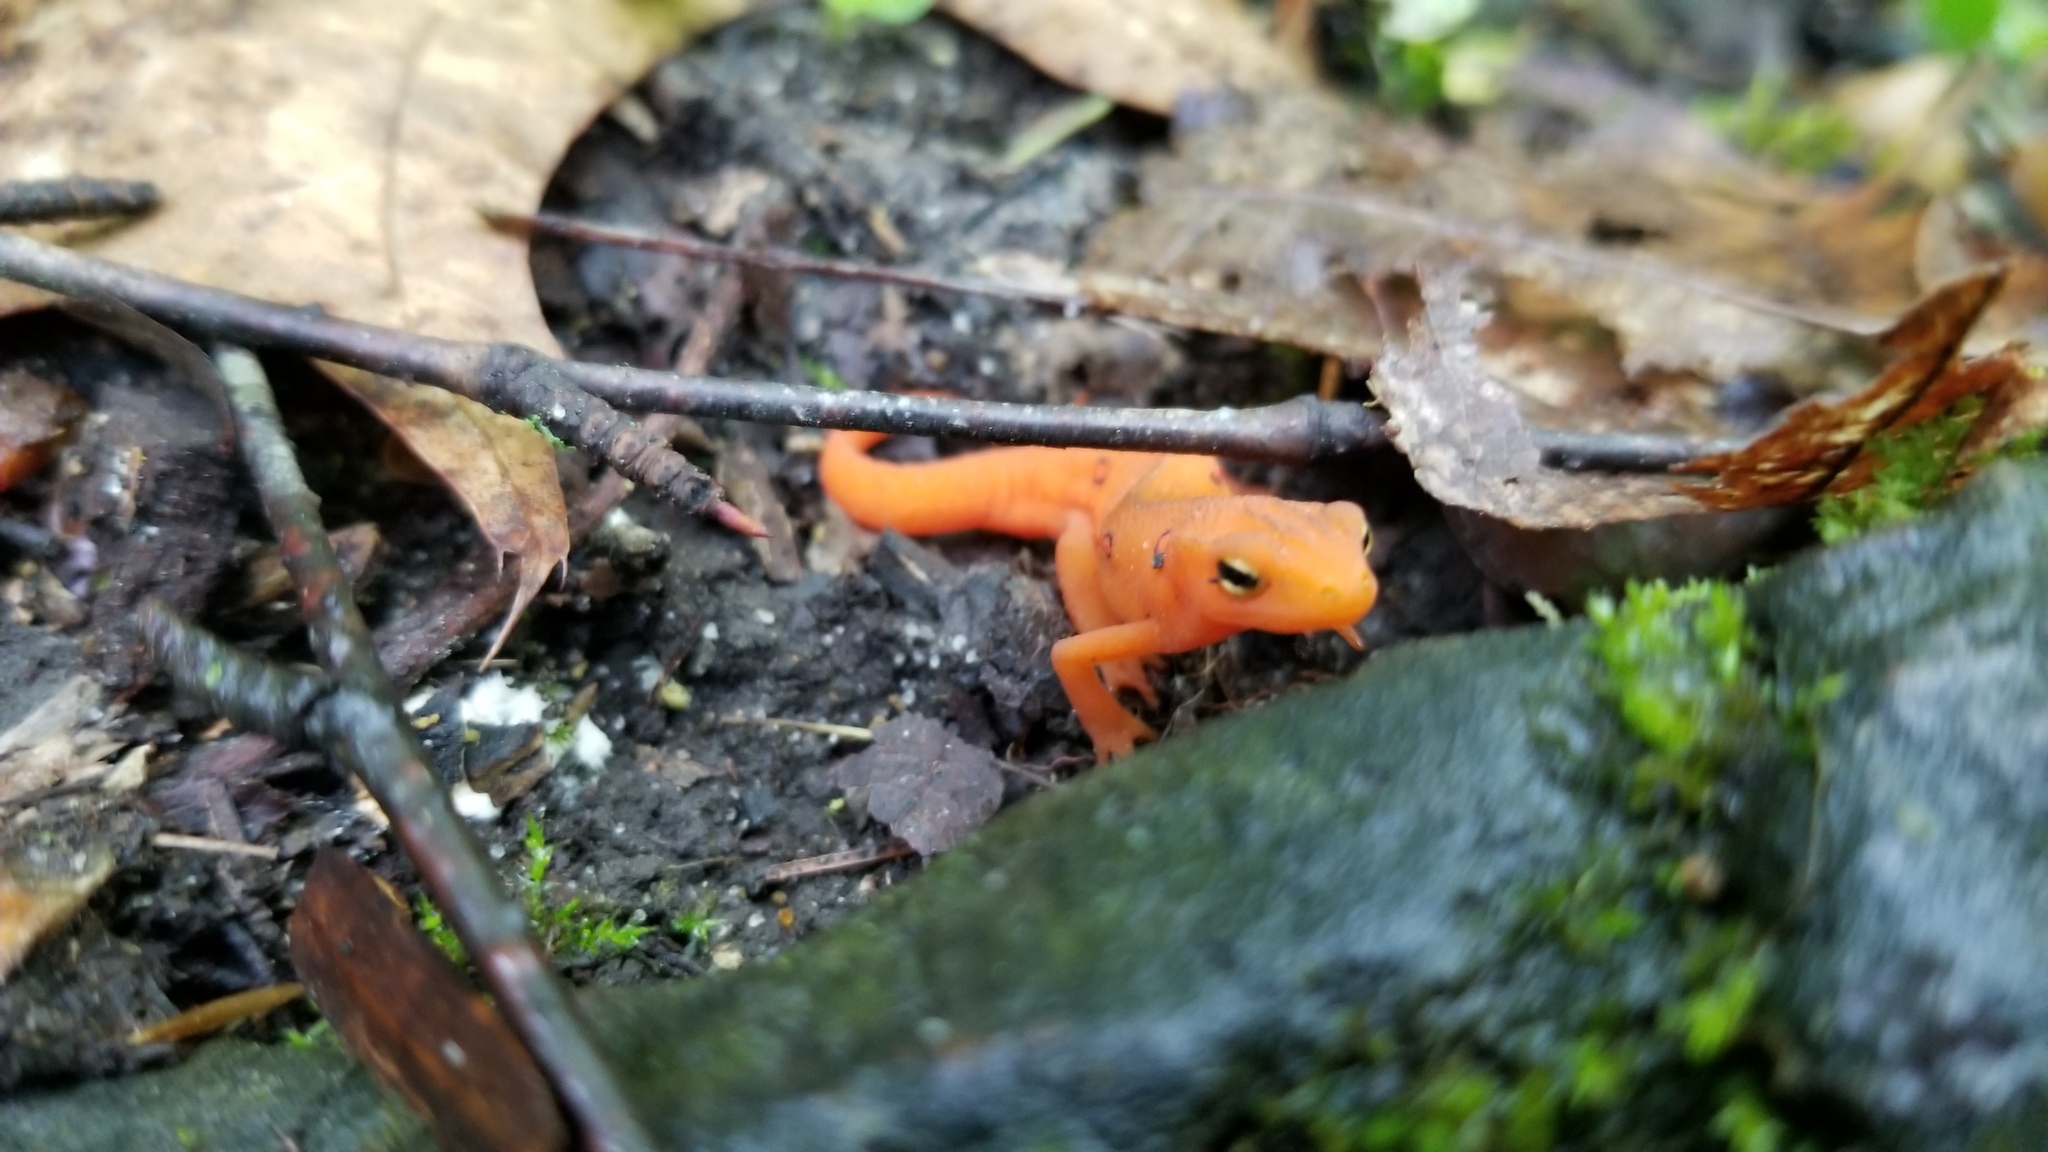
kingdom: Animalia
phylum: Chordata
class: Amphibia
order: Caudata
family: Salamandridae
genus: Notophthalmus
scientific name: Notophthalmus viridescens
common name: Eastern newt
